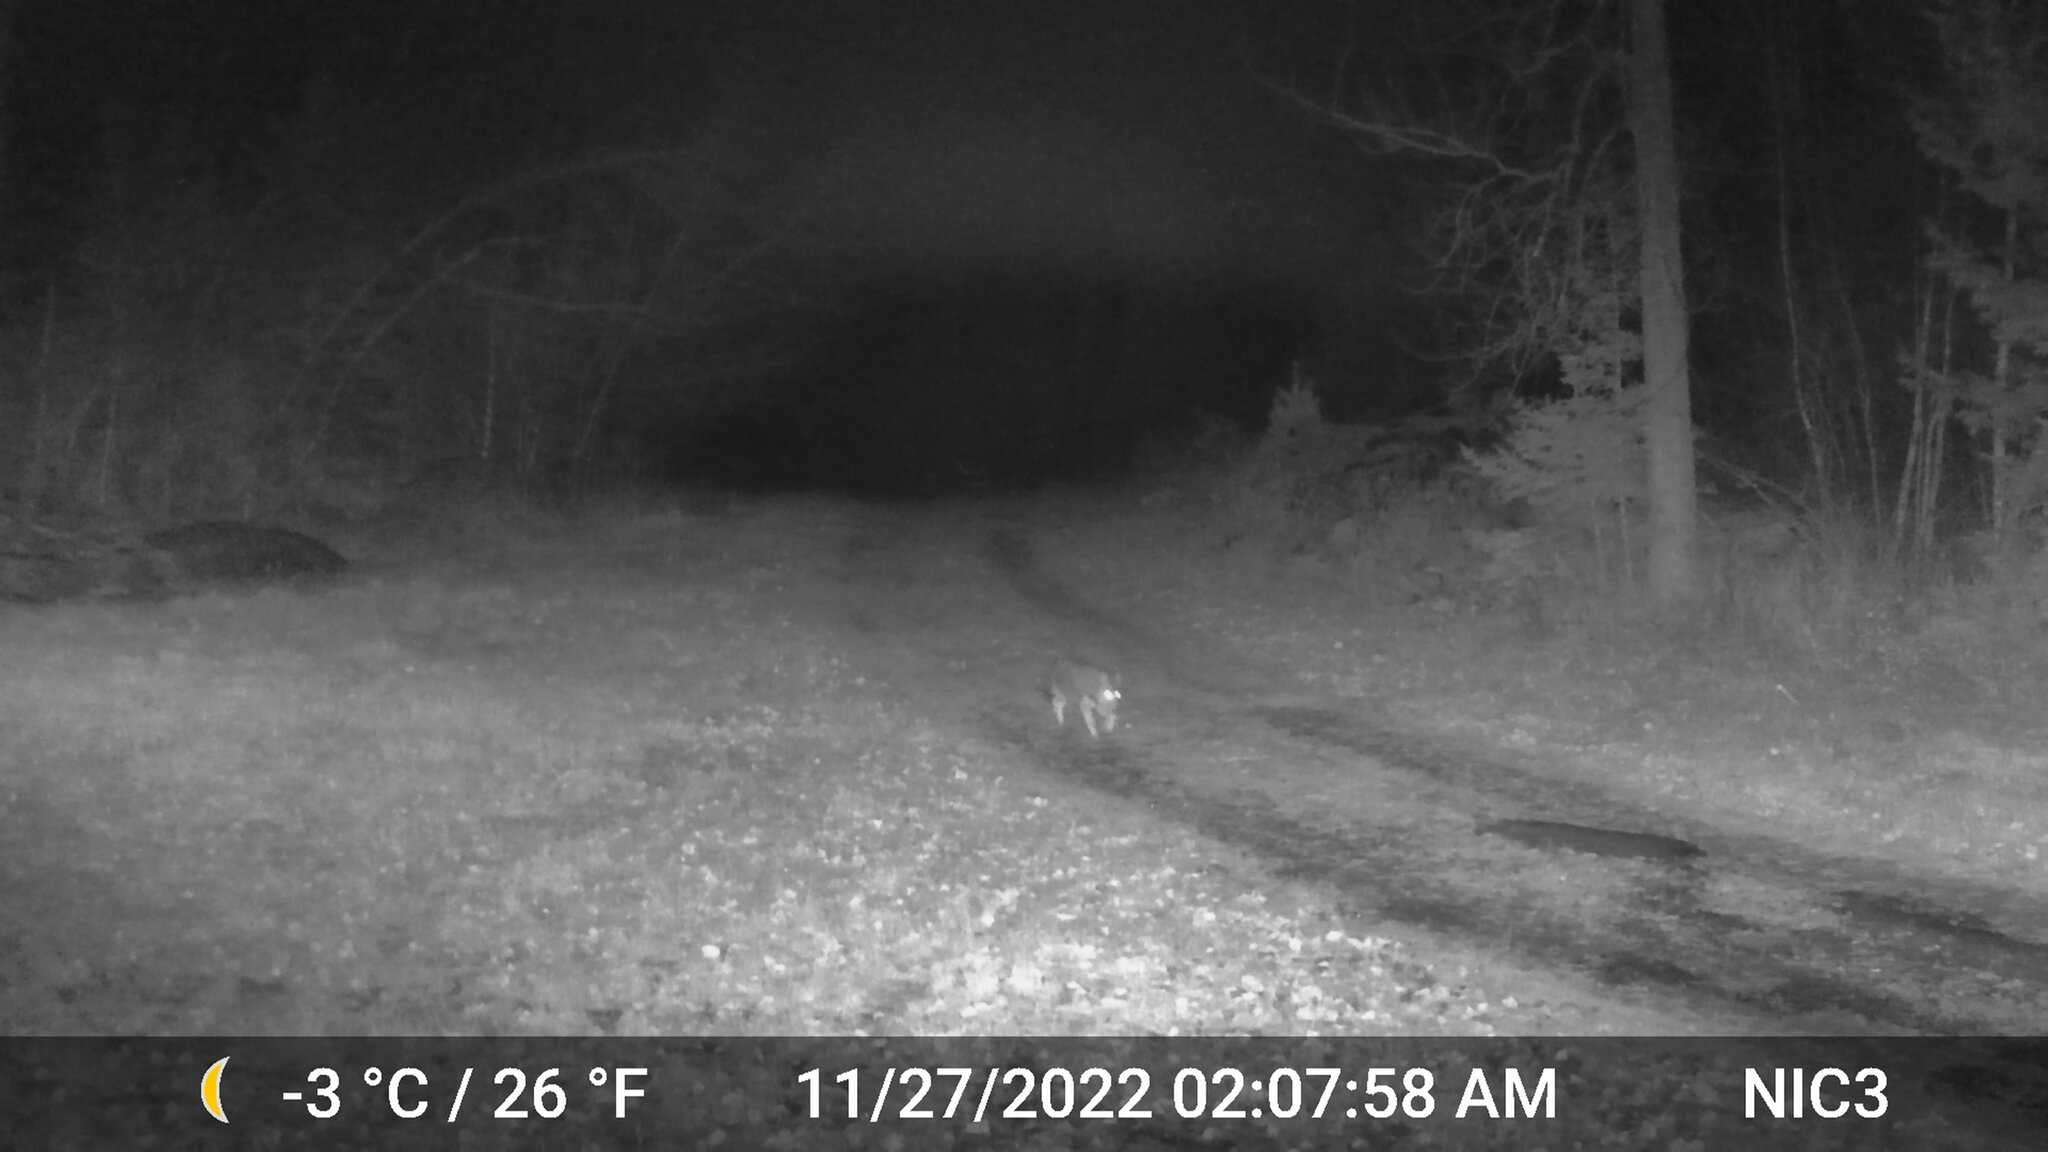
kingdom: Animalia
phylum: Chordata
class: Mammalia
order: Carnivora
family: Canidae
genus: Canis
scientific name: Canis latrans
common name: Coyote
